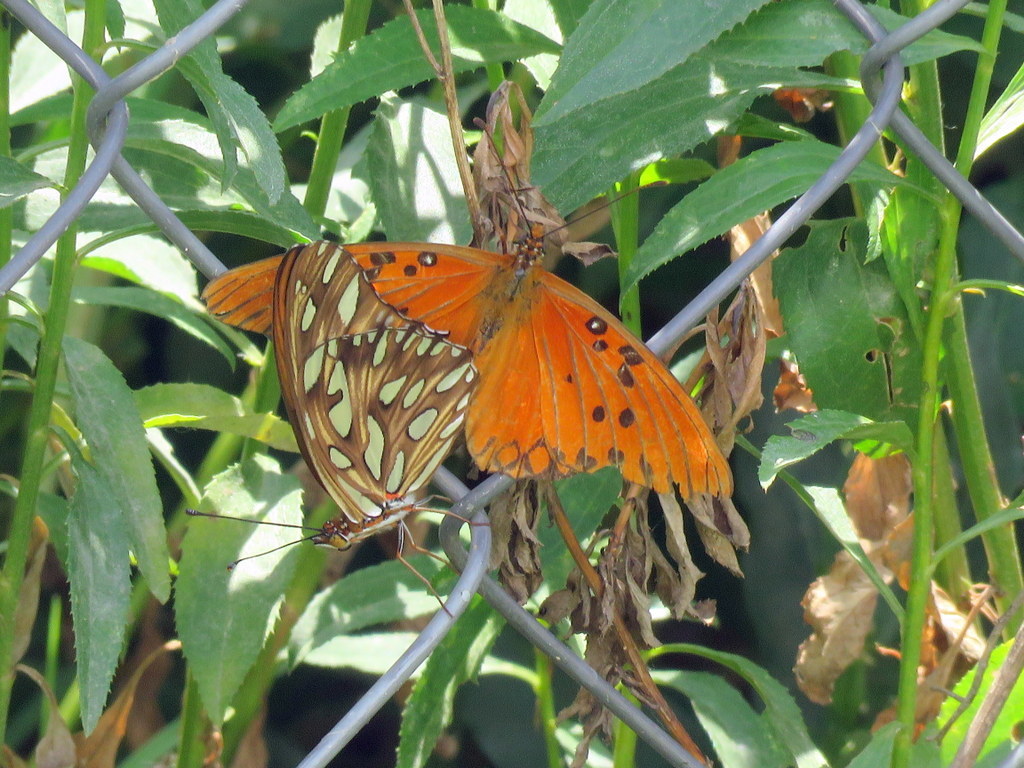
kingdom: Animalia
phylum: Arthropoda
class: Insecta
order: Lepidoptera
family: Nymphalidae
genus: Dione
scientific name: Dione vanillae
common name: Gulf fritillary
